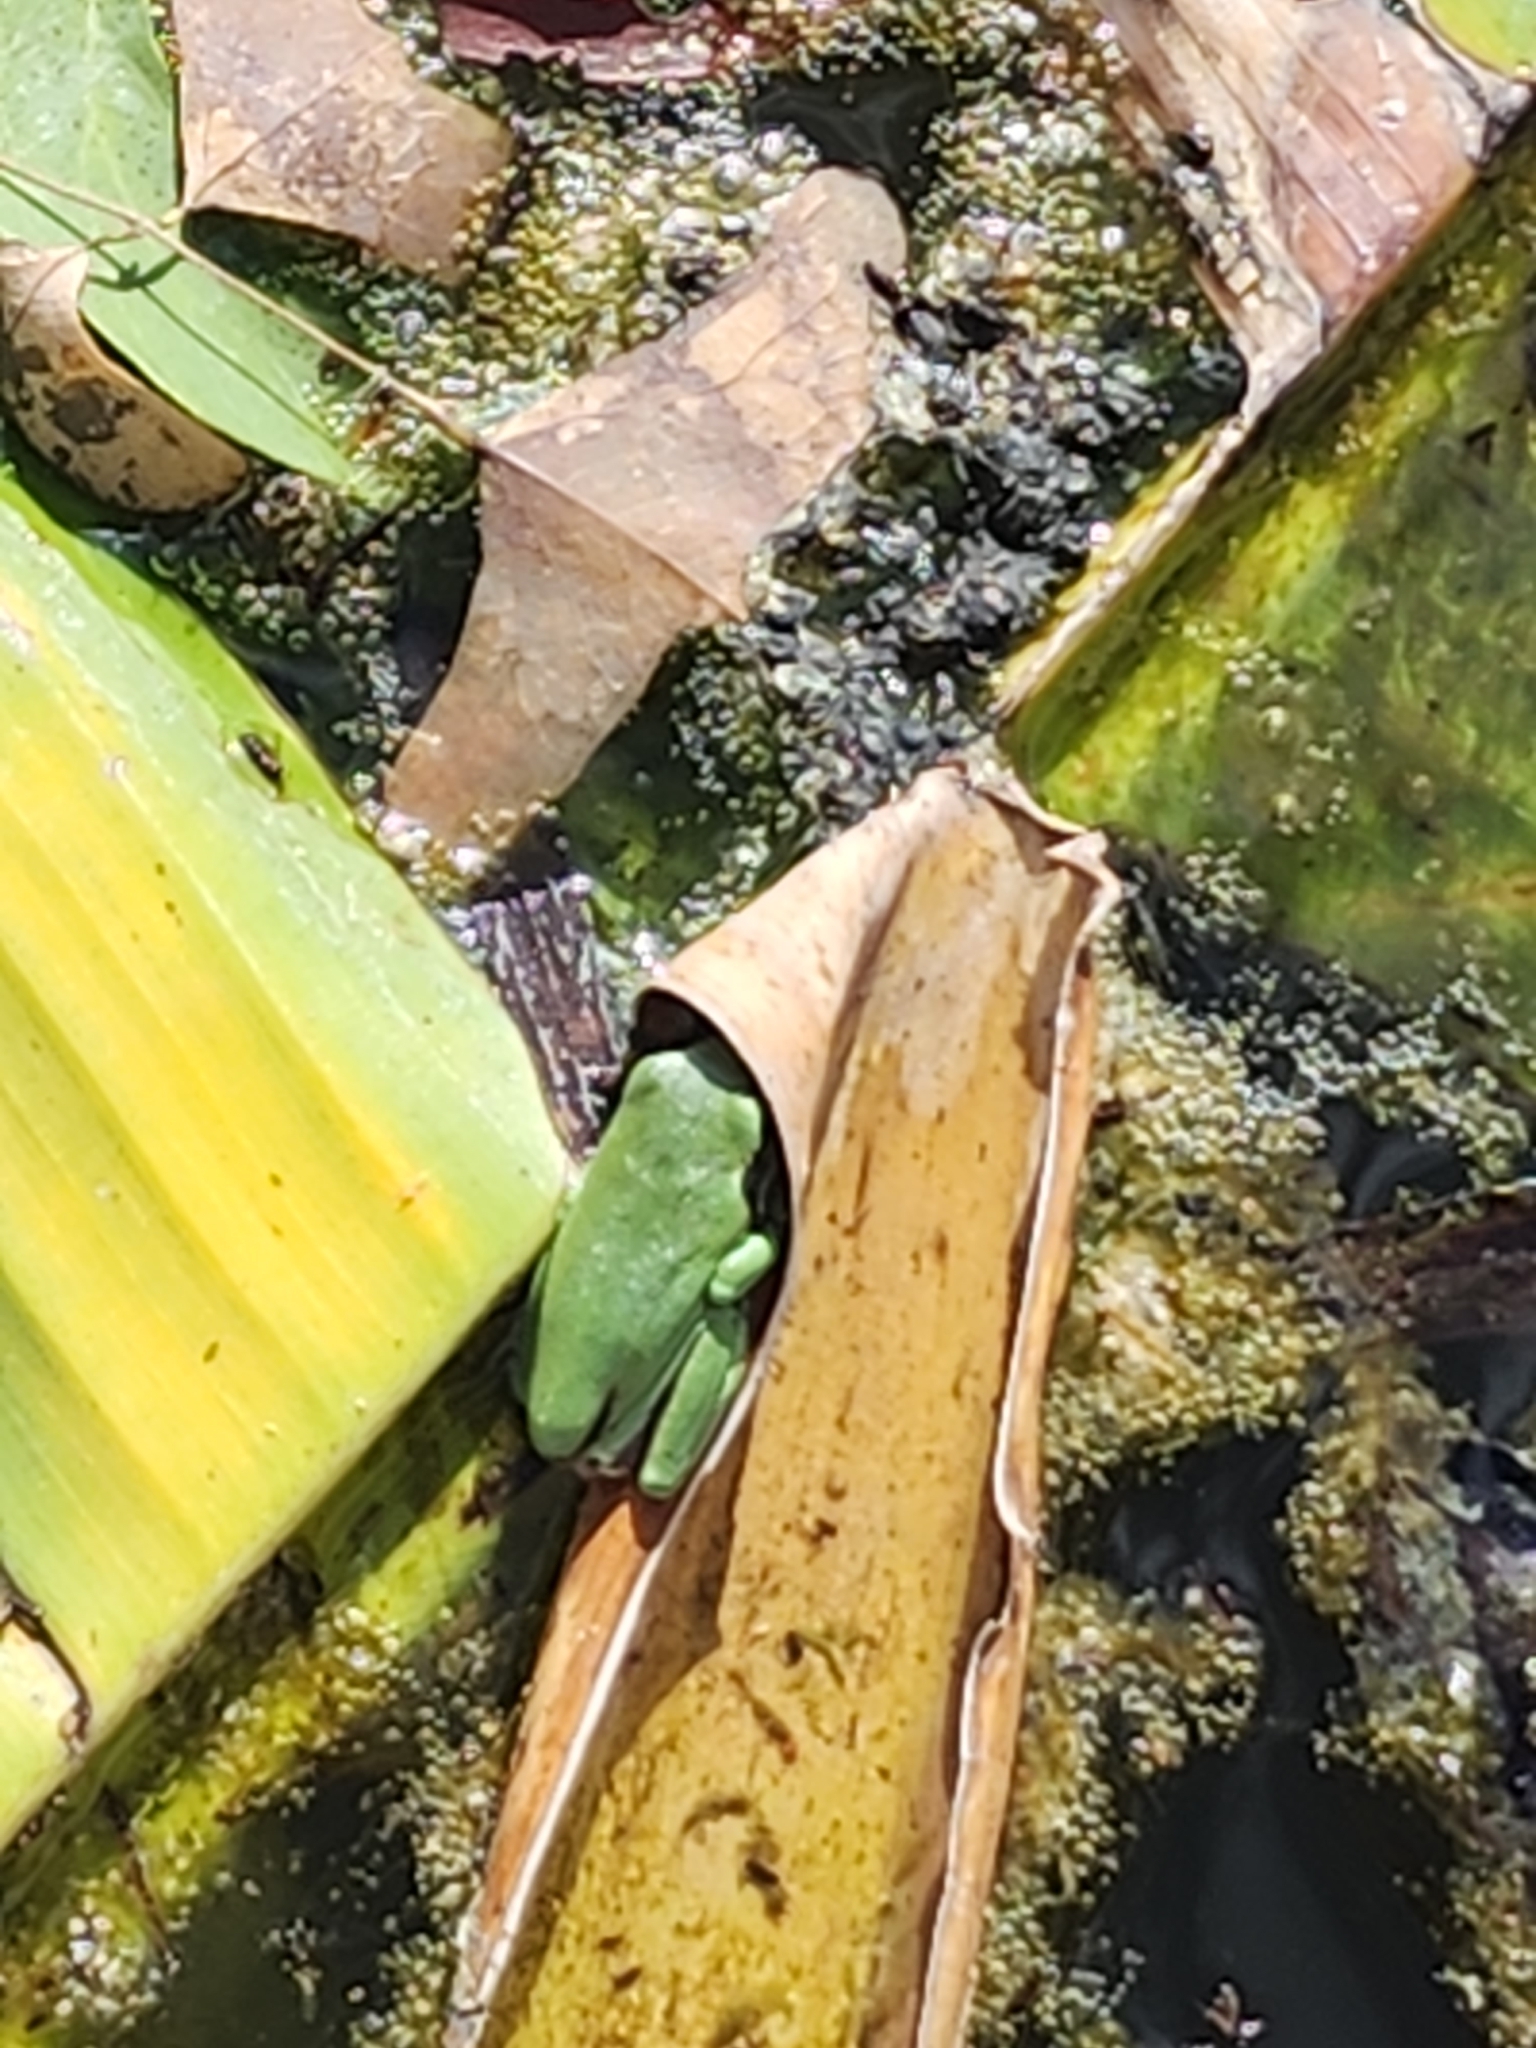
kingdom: Animalia
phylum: Chordata
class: Amphibia
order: Anura
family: Pelodryadidae
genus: Ranoidea
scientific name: Ranoidea caerulea
